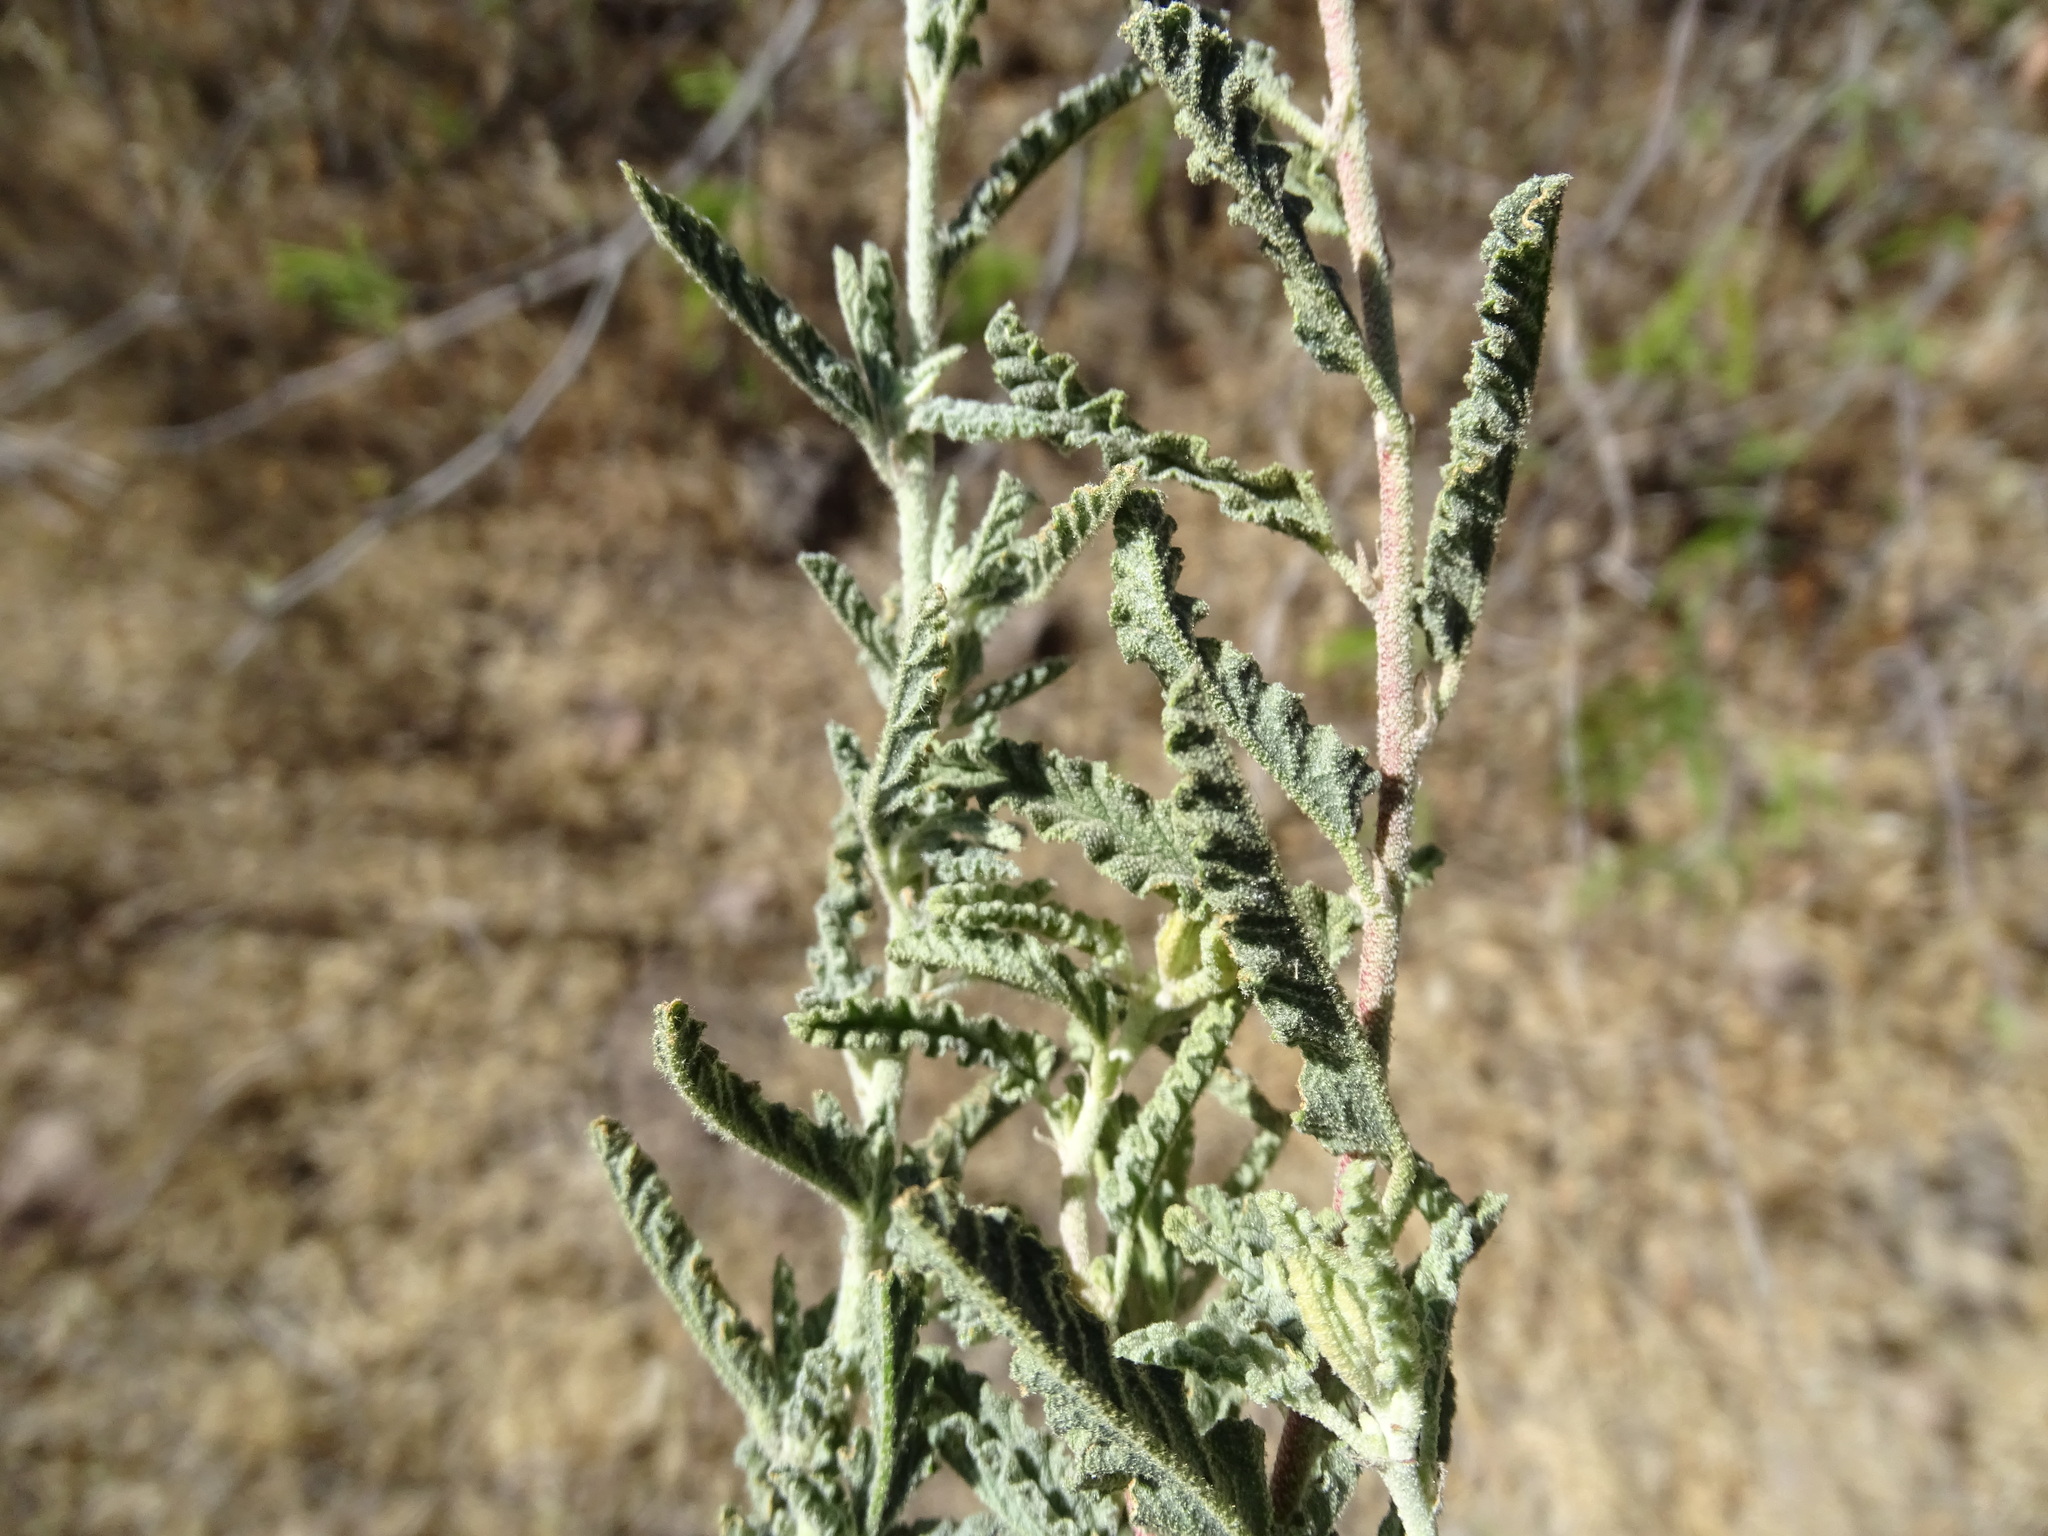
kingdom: Plantae
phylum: Tracheophyta
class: Magnoliopsida
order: Malvales
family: Malvaceae
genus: Sphaeralcea
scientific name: Sphaeralcea angustifolia
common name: Copper globe-mallow
